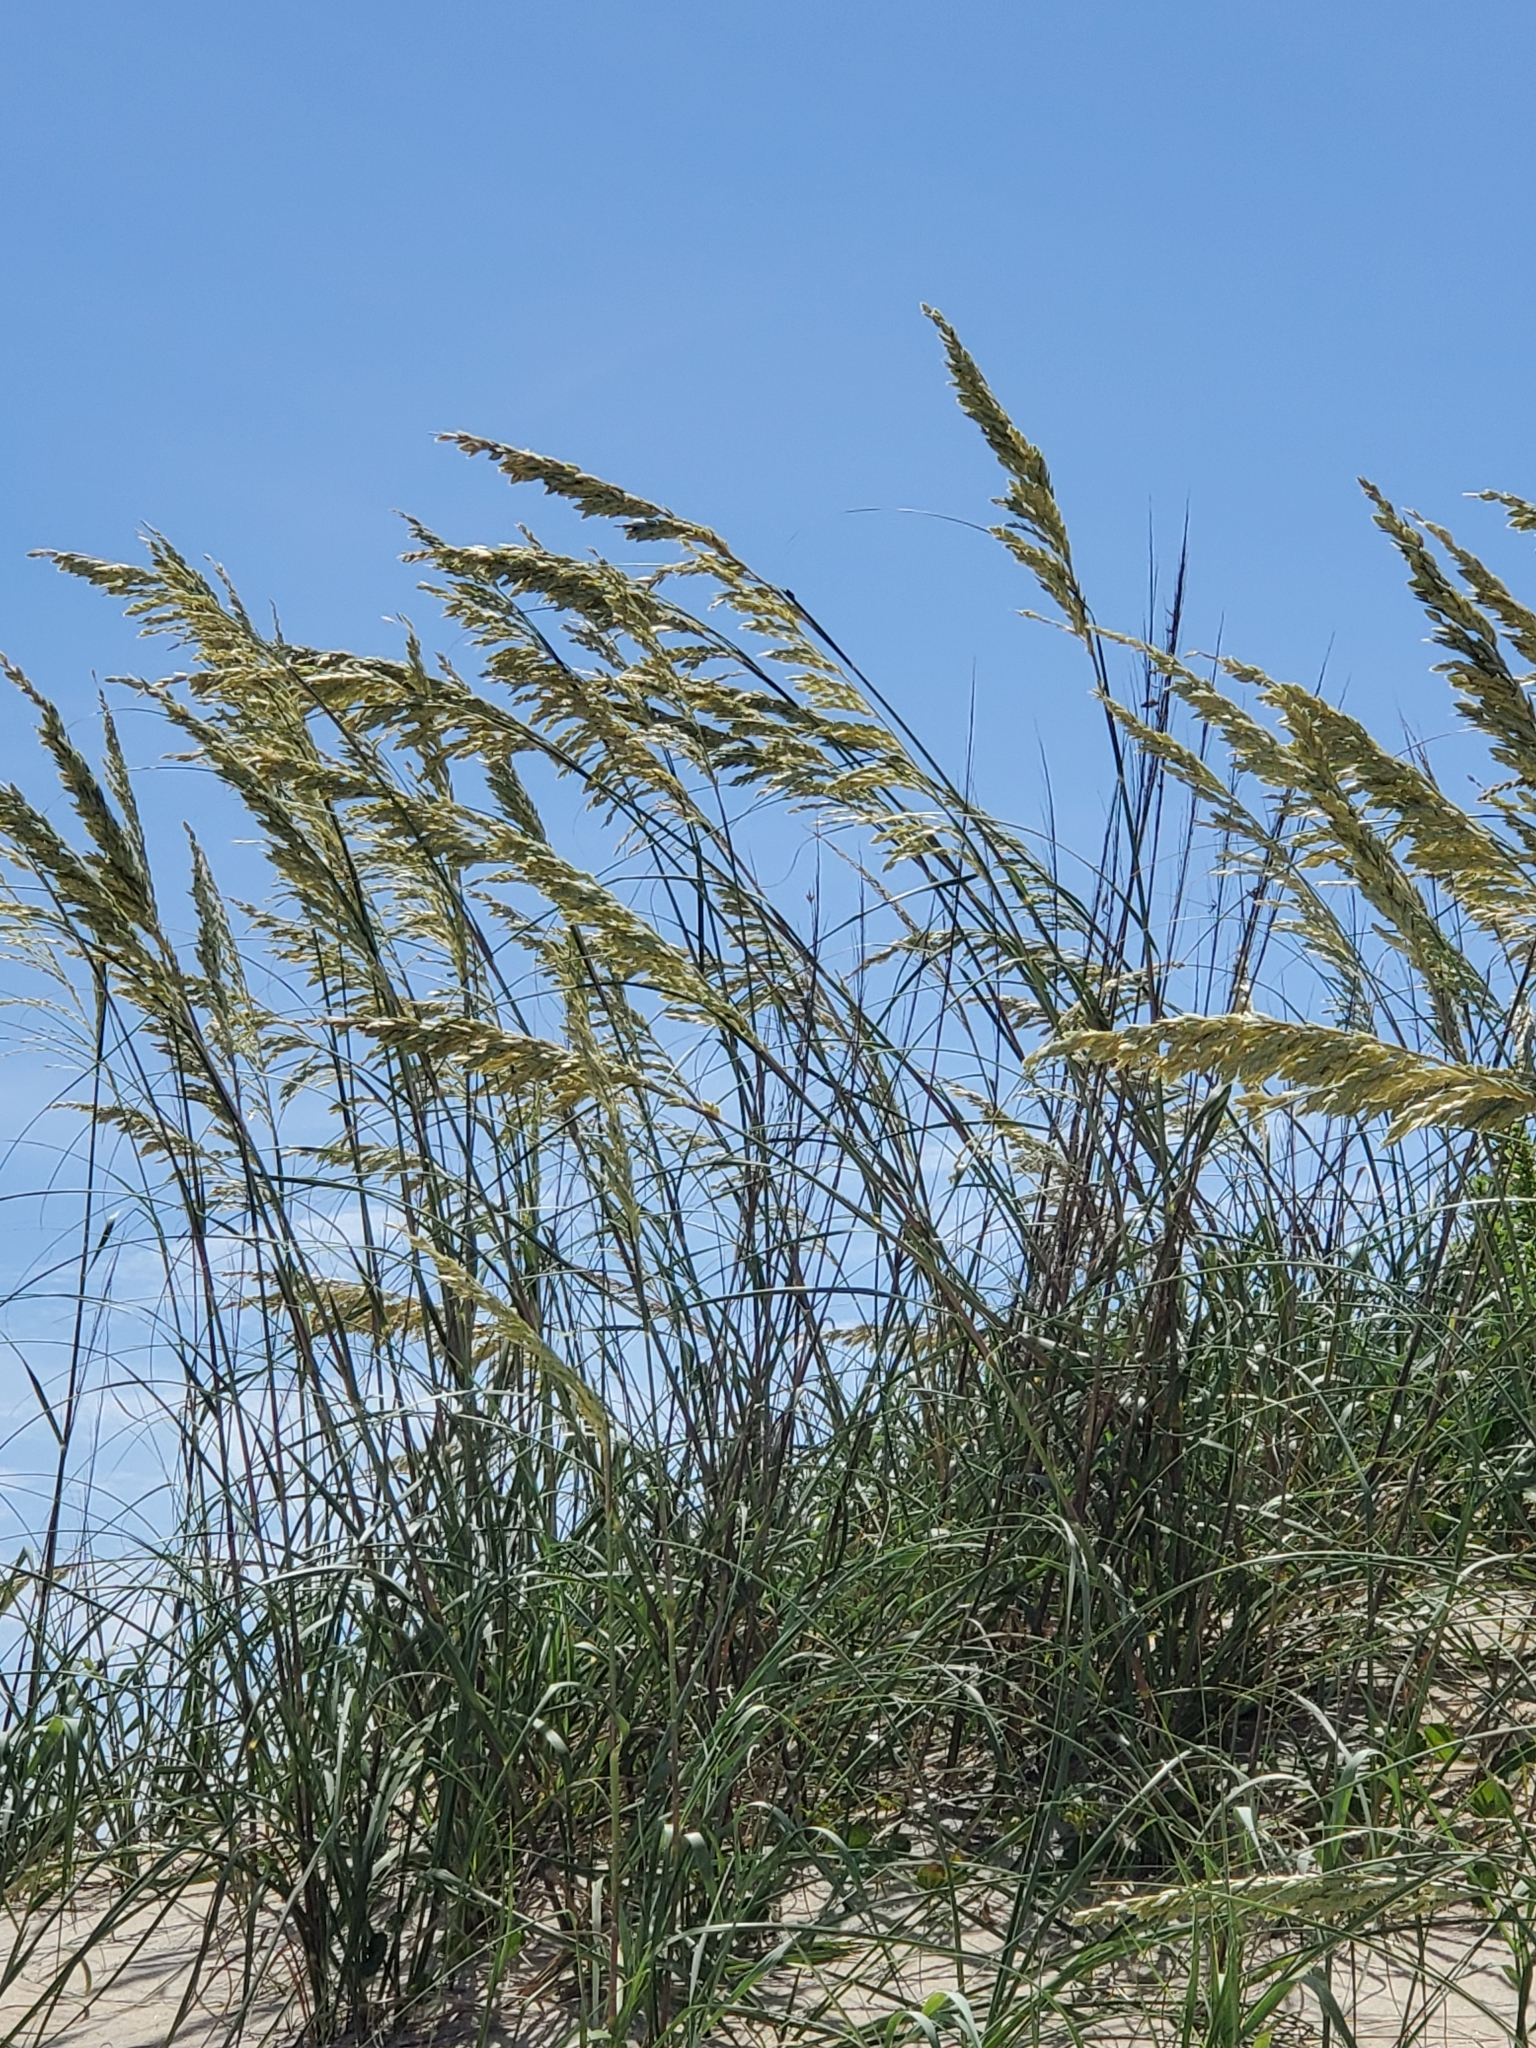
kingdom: Plantae
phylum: Tracheophyta
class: Liliopsida
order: Poales
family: Poaceae
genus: Uniola
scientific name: Uniola paniculata
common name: Seaside-oats
